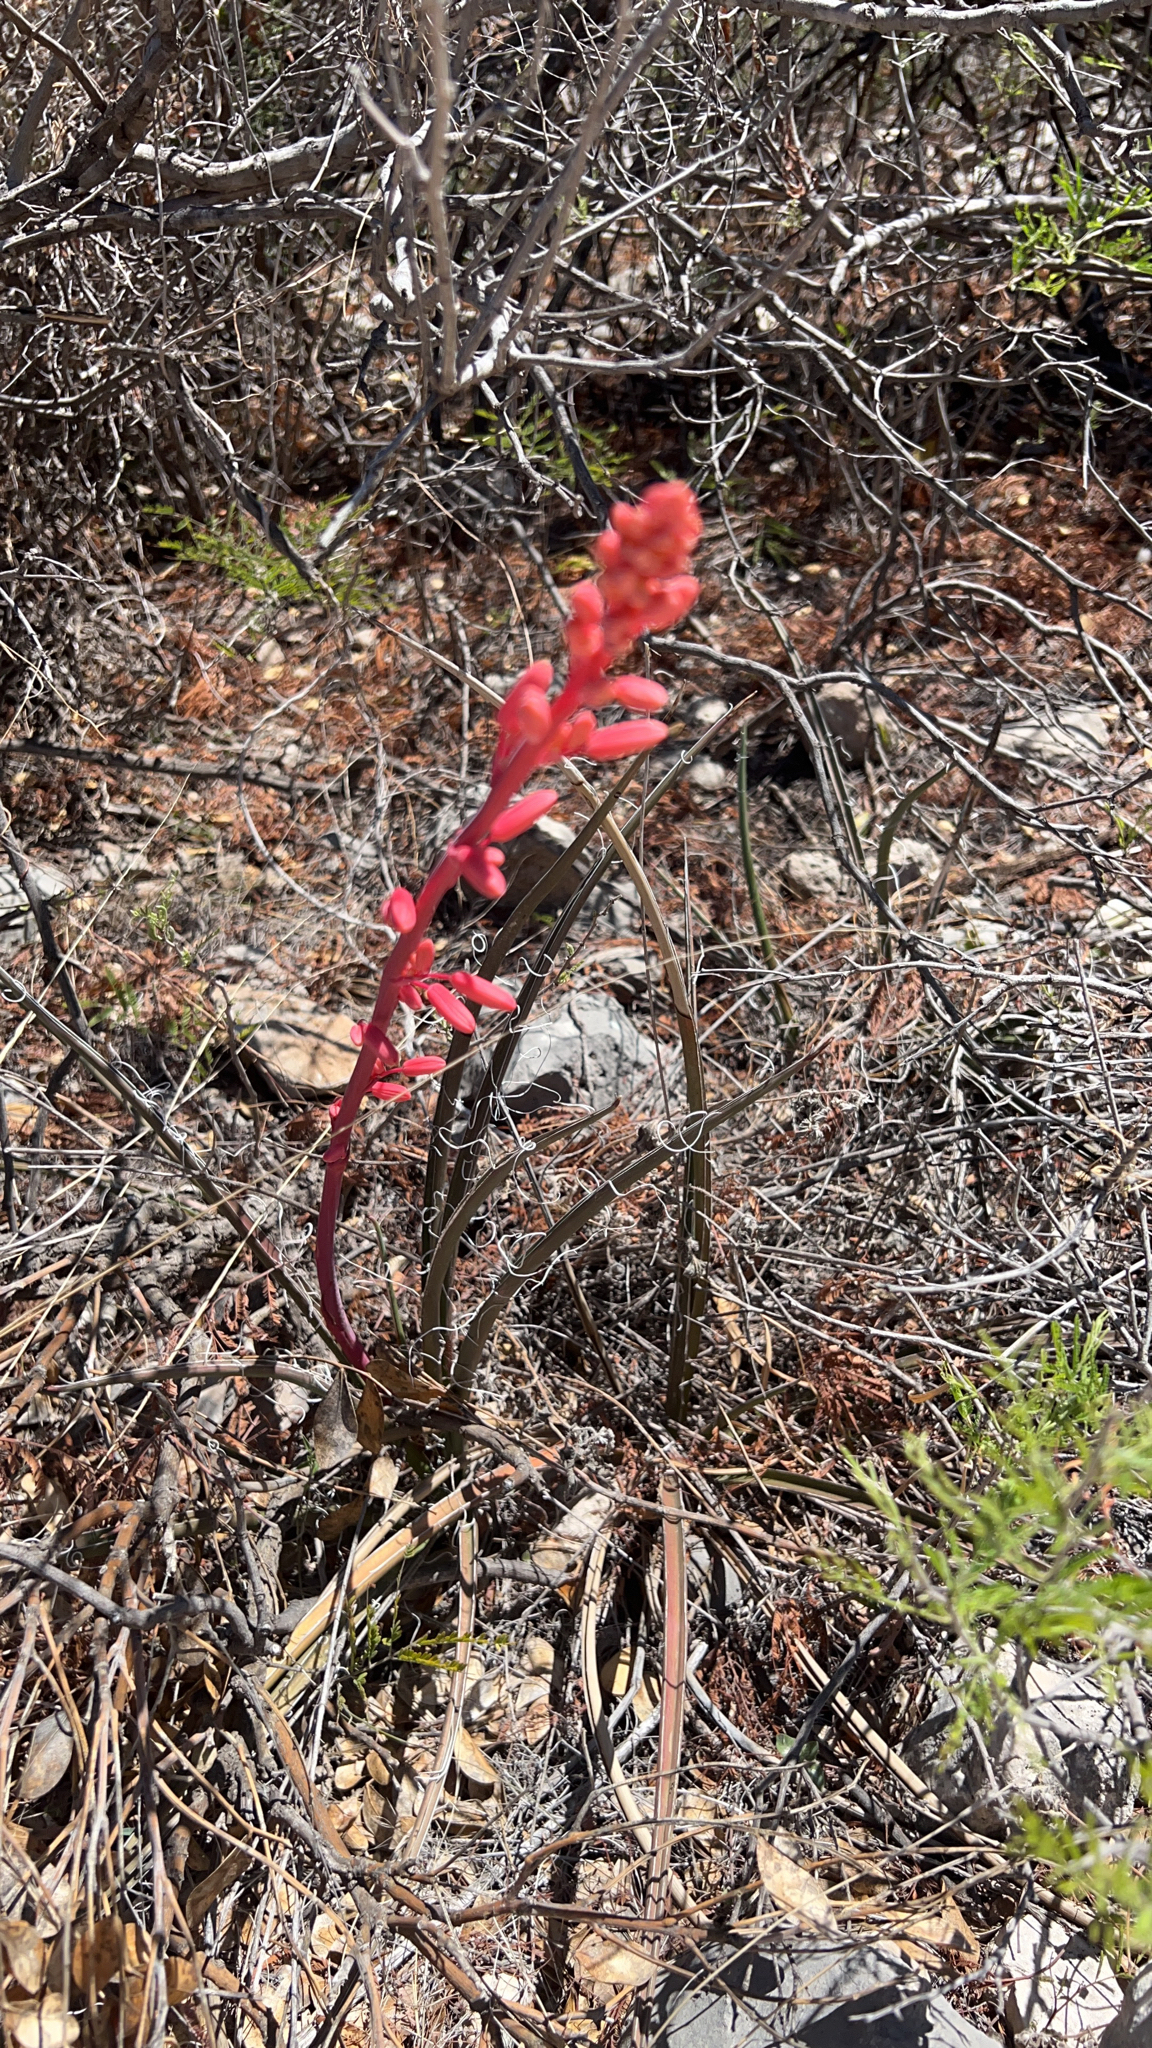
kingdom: Plantae
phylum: Tracheophyta
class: Liliopsida
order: Asparagales
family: Asparagaceae
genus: Hesperaloe
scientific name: Hesperaloe parviflora
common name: Red hesperaloe
